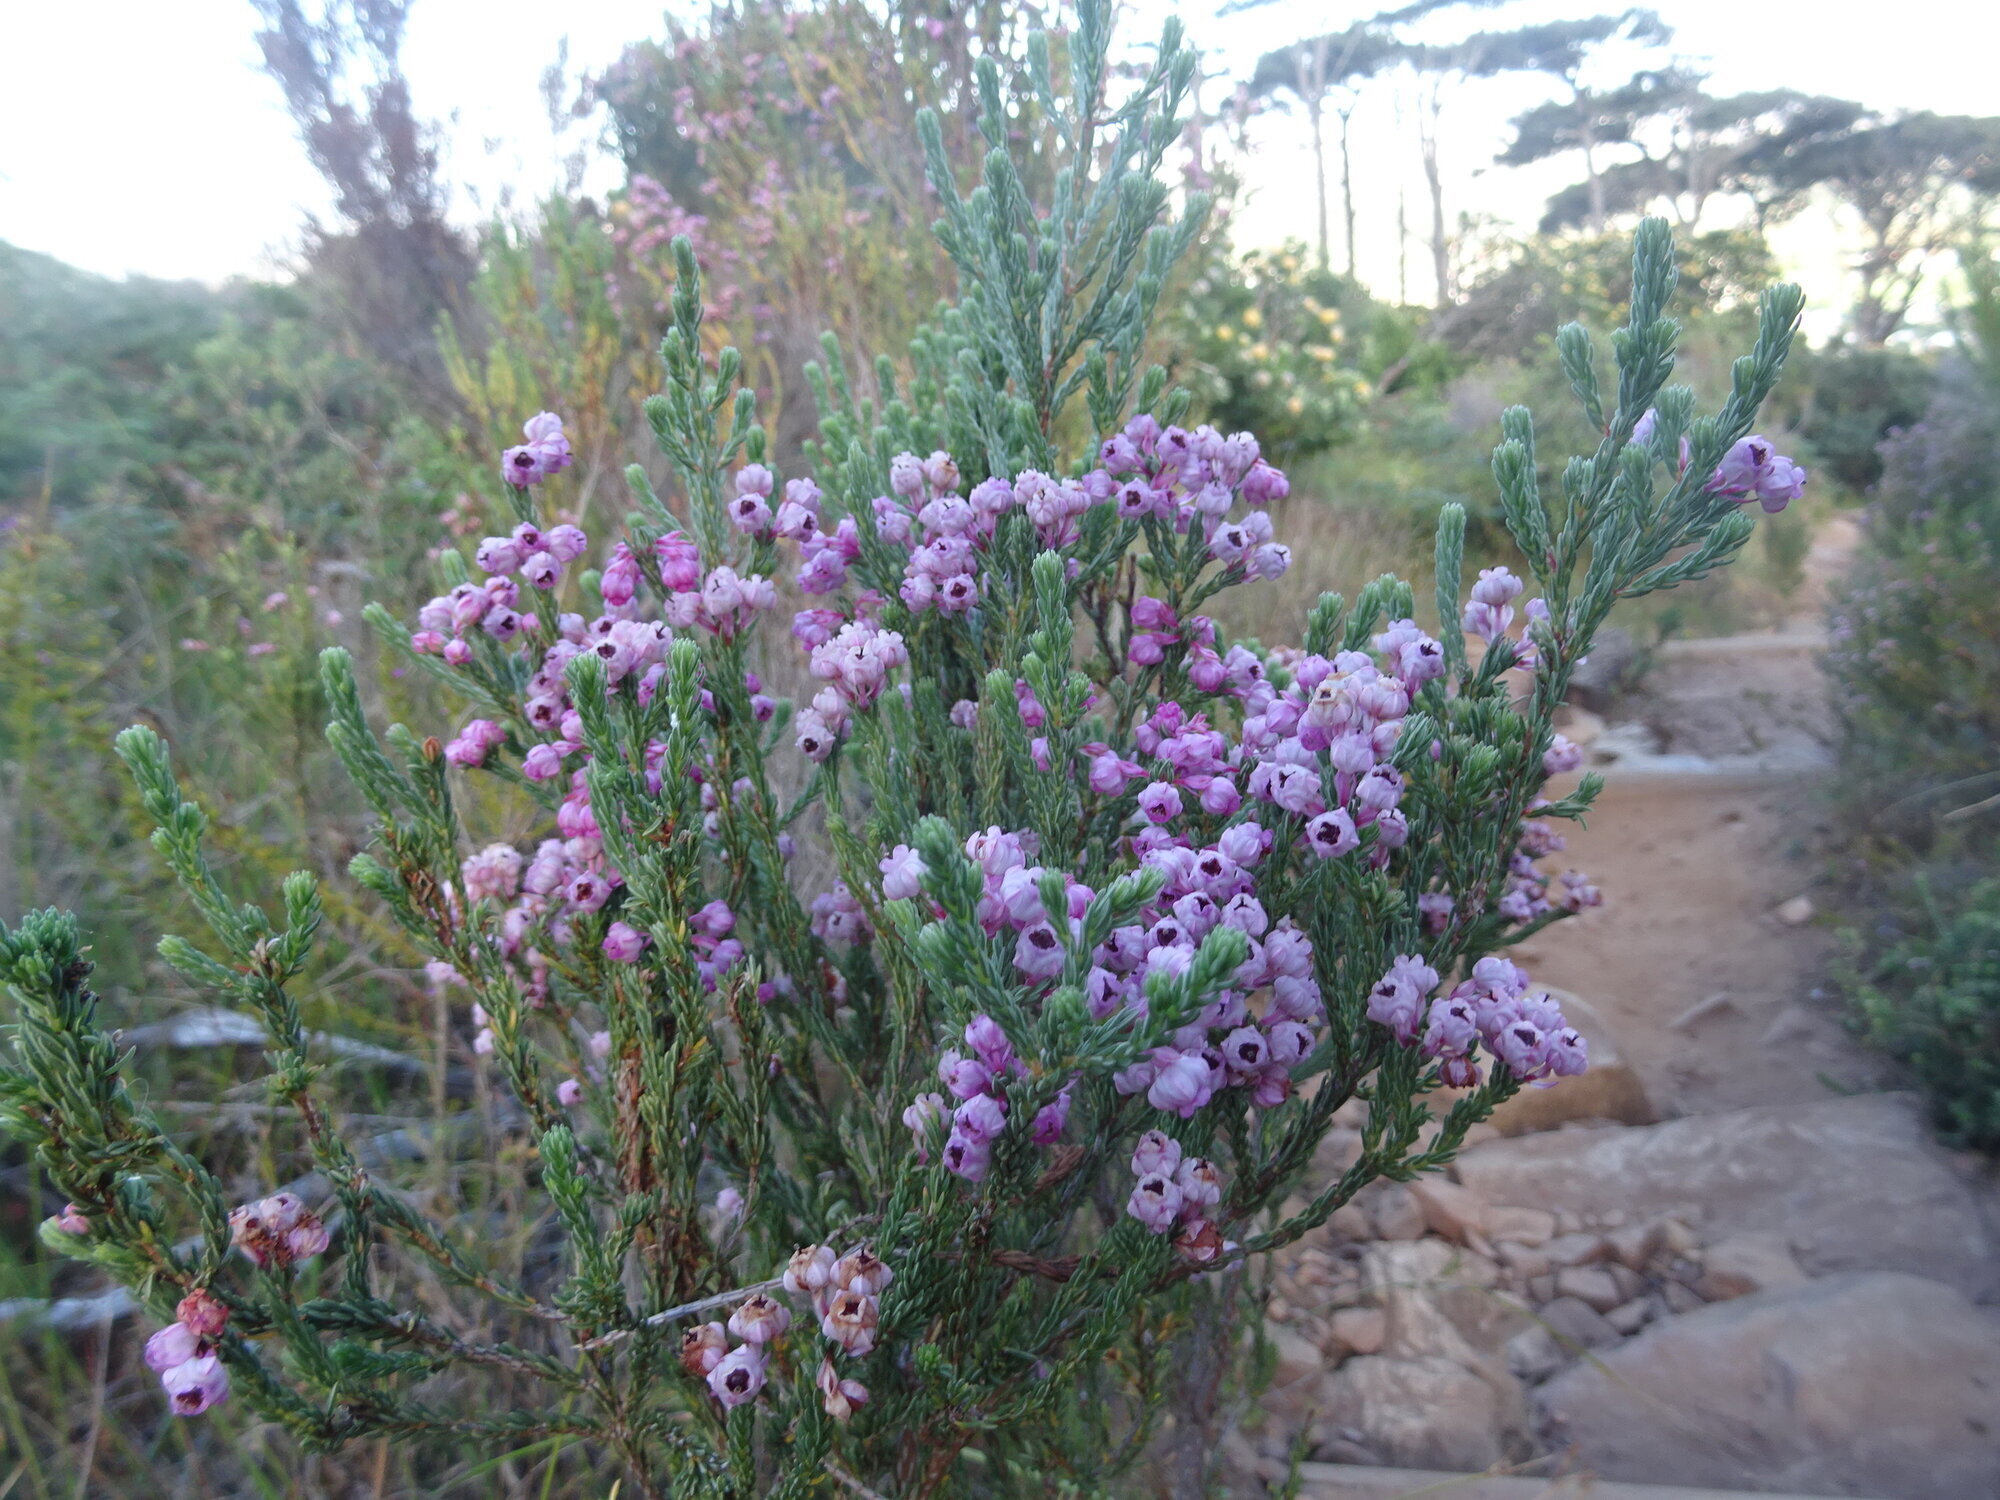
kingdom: Plantae
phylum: Tracheophyta
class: Magnoliopsida
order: Ericales
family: Ericaceae
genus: Erica
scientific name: Erica baccans
